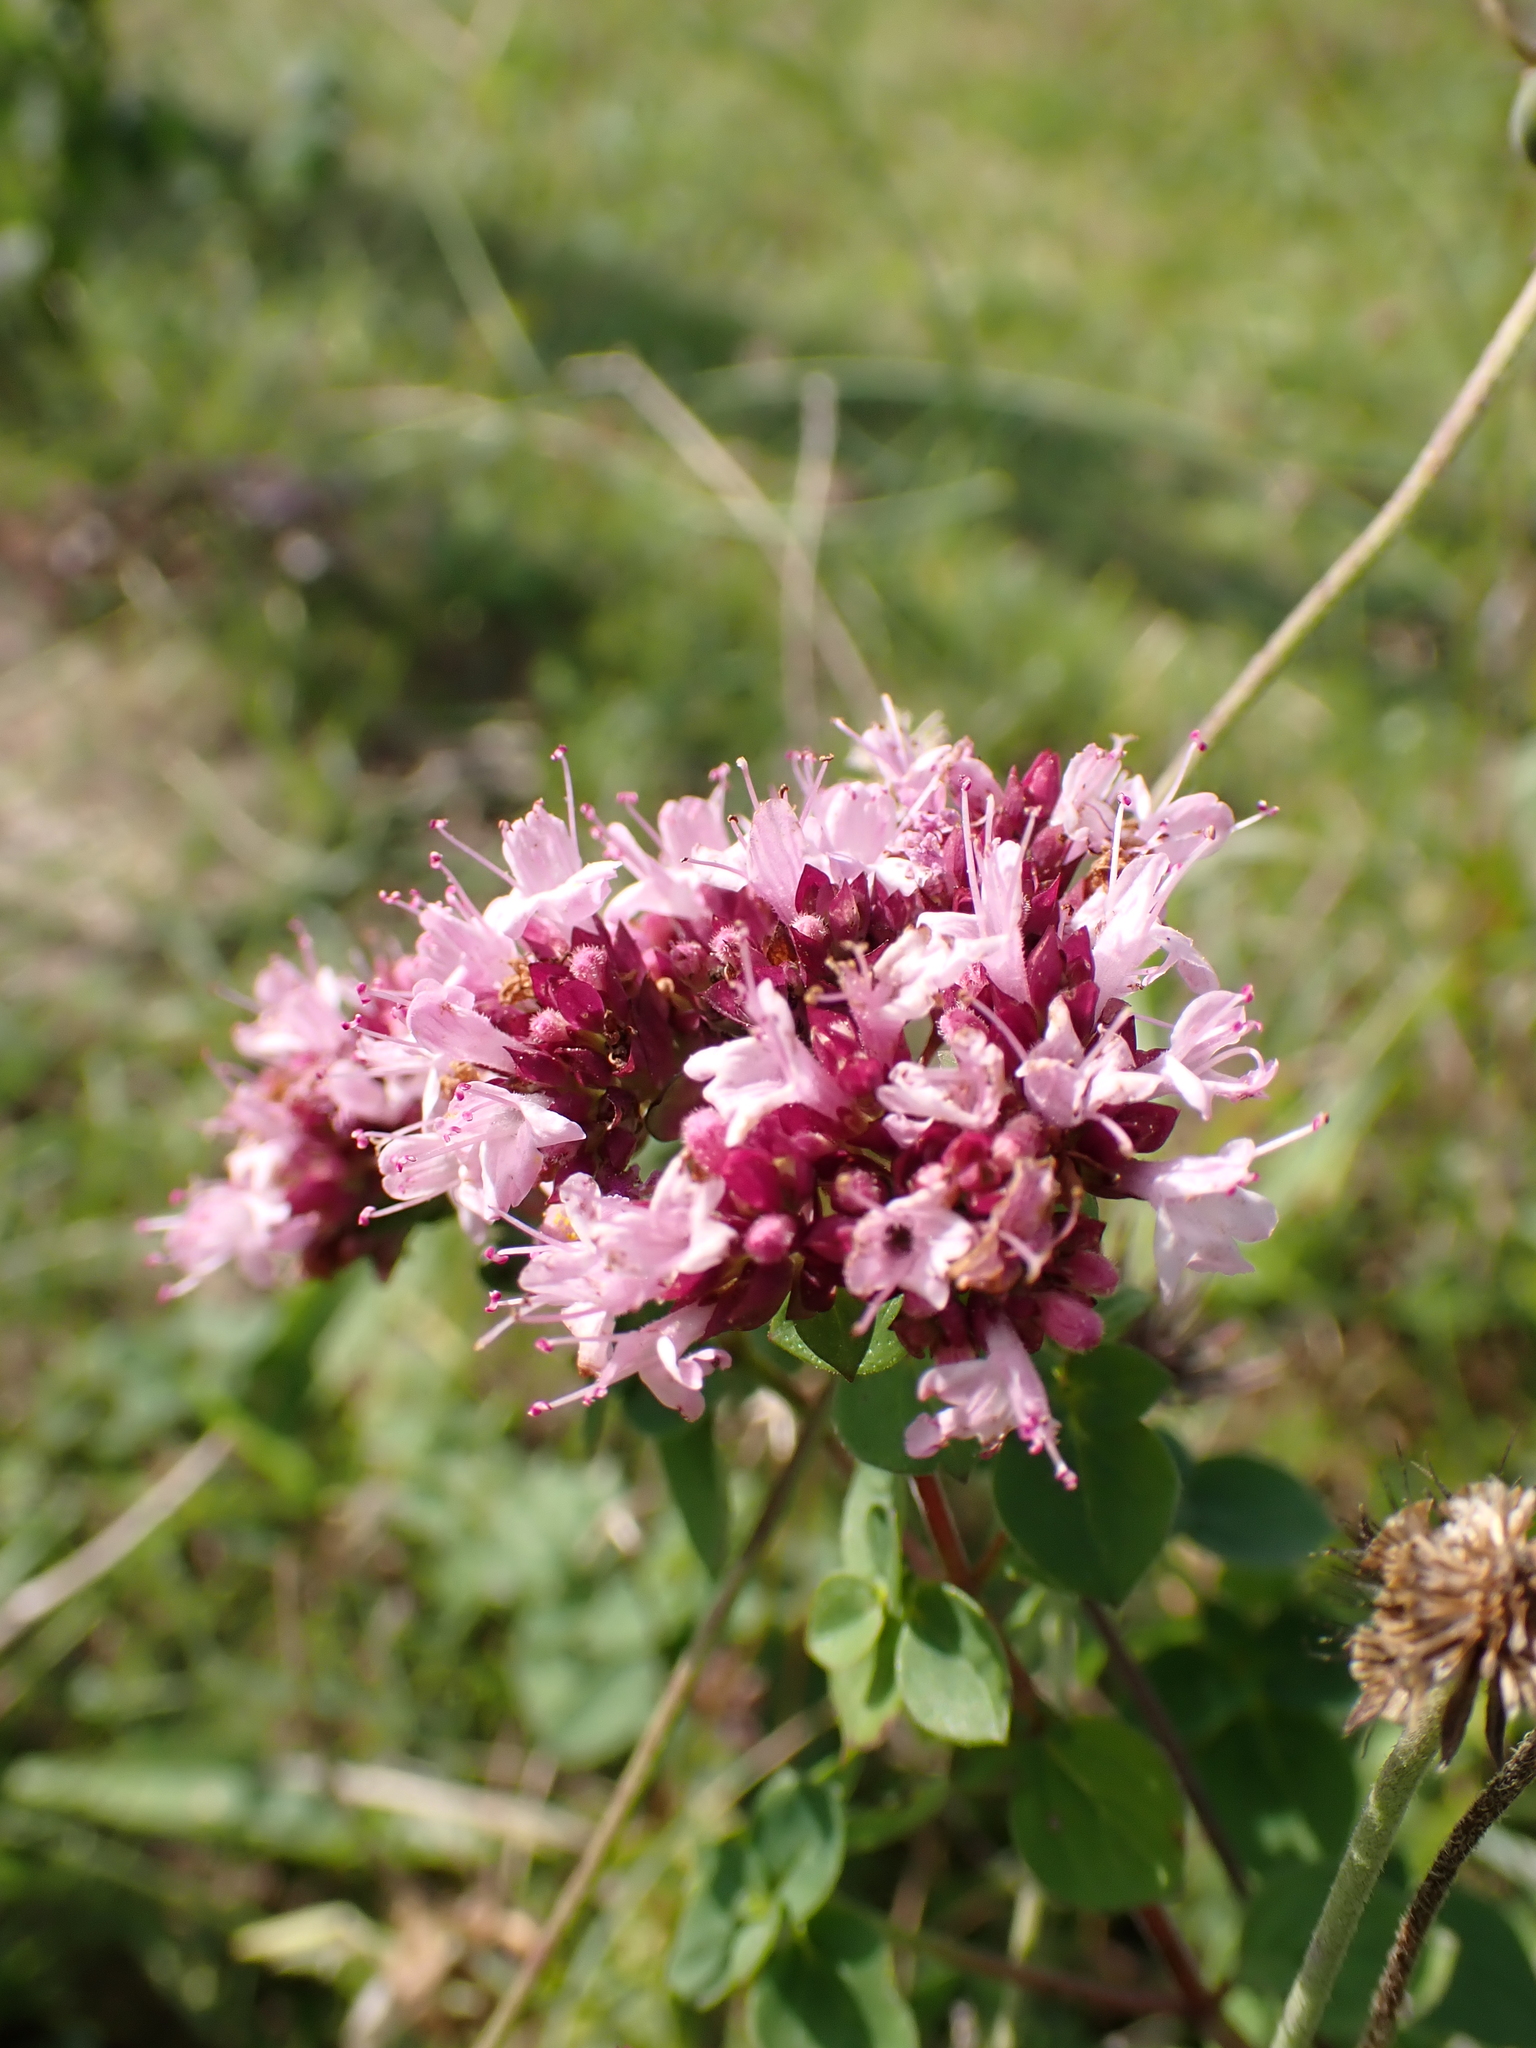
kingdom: Plantae
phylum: Tracheophyta
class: Magnoliopsida
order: Lamiales
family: Lamiaceae
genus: Origanum
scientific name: Origanum vulgare
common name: Wild marjoram
